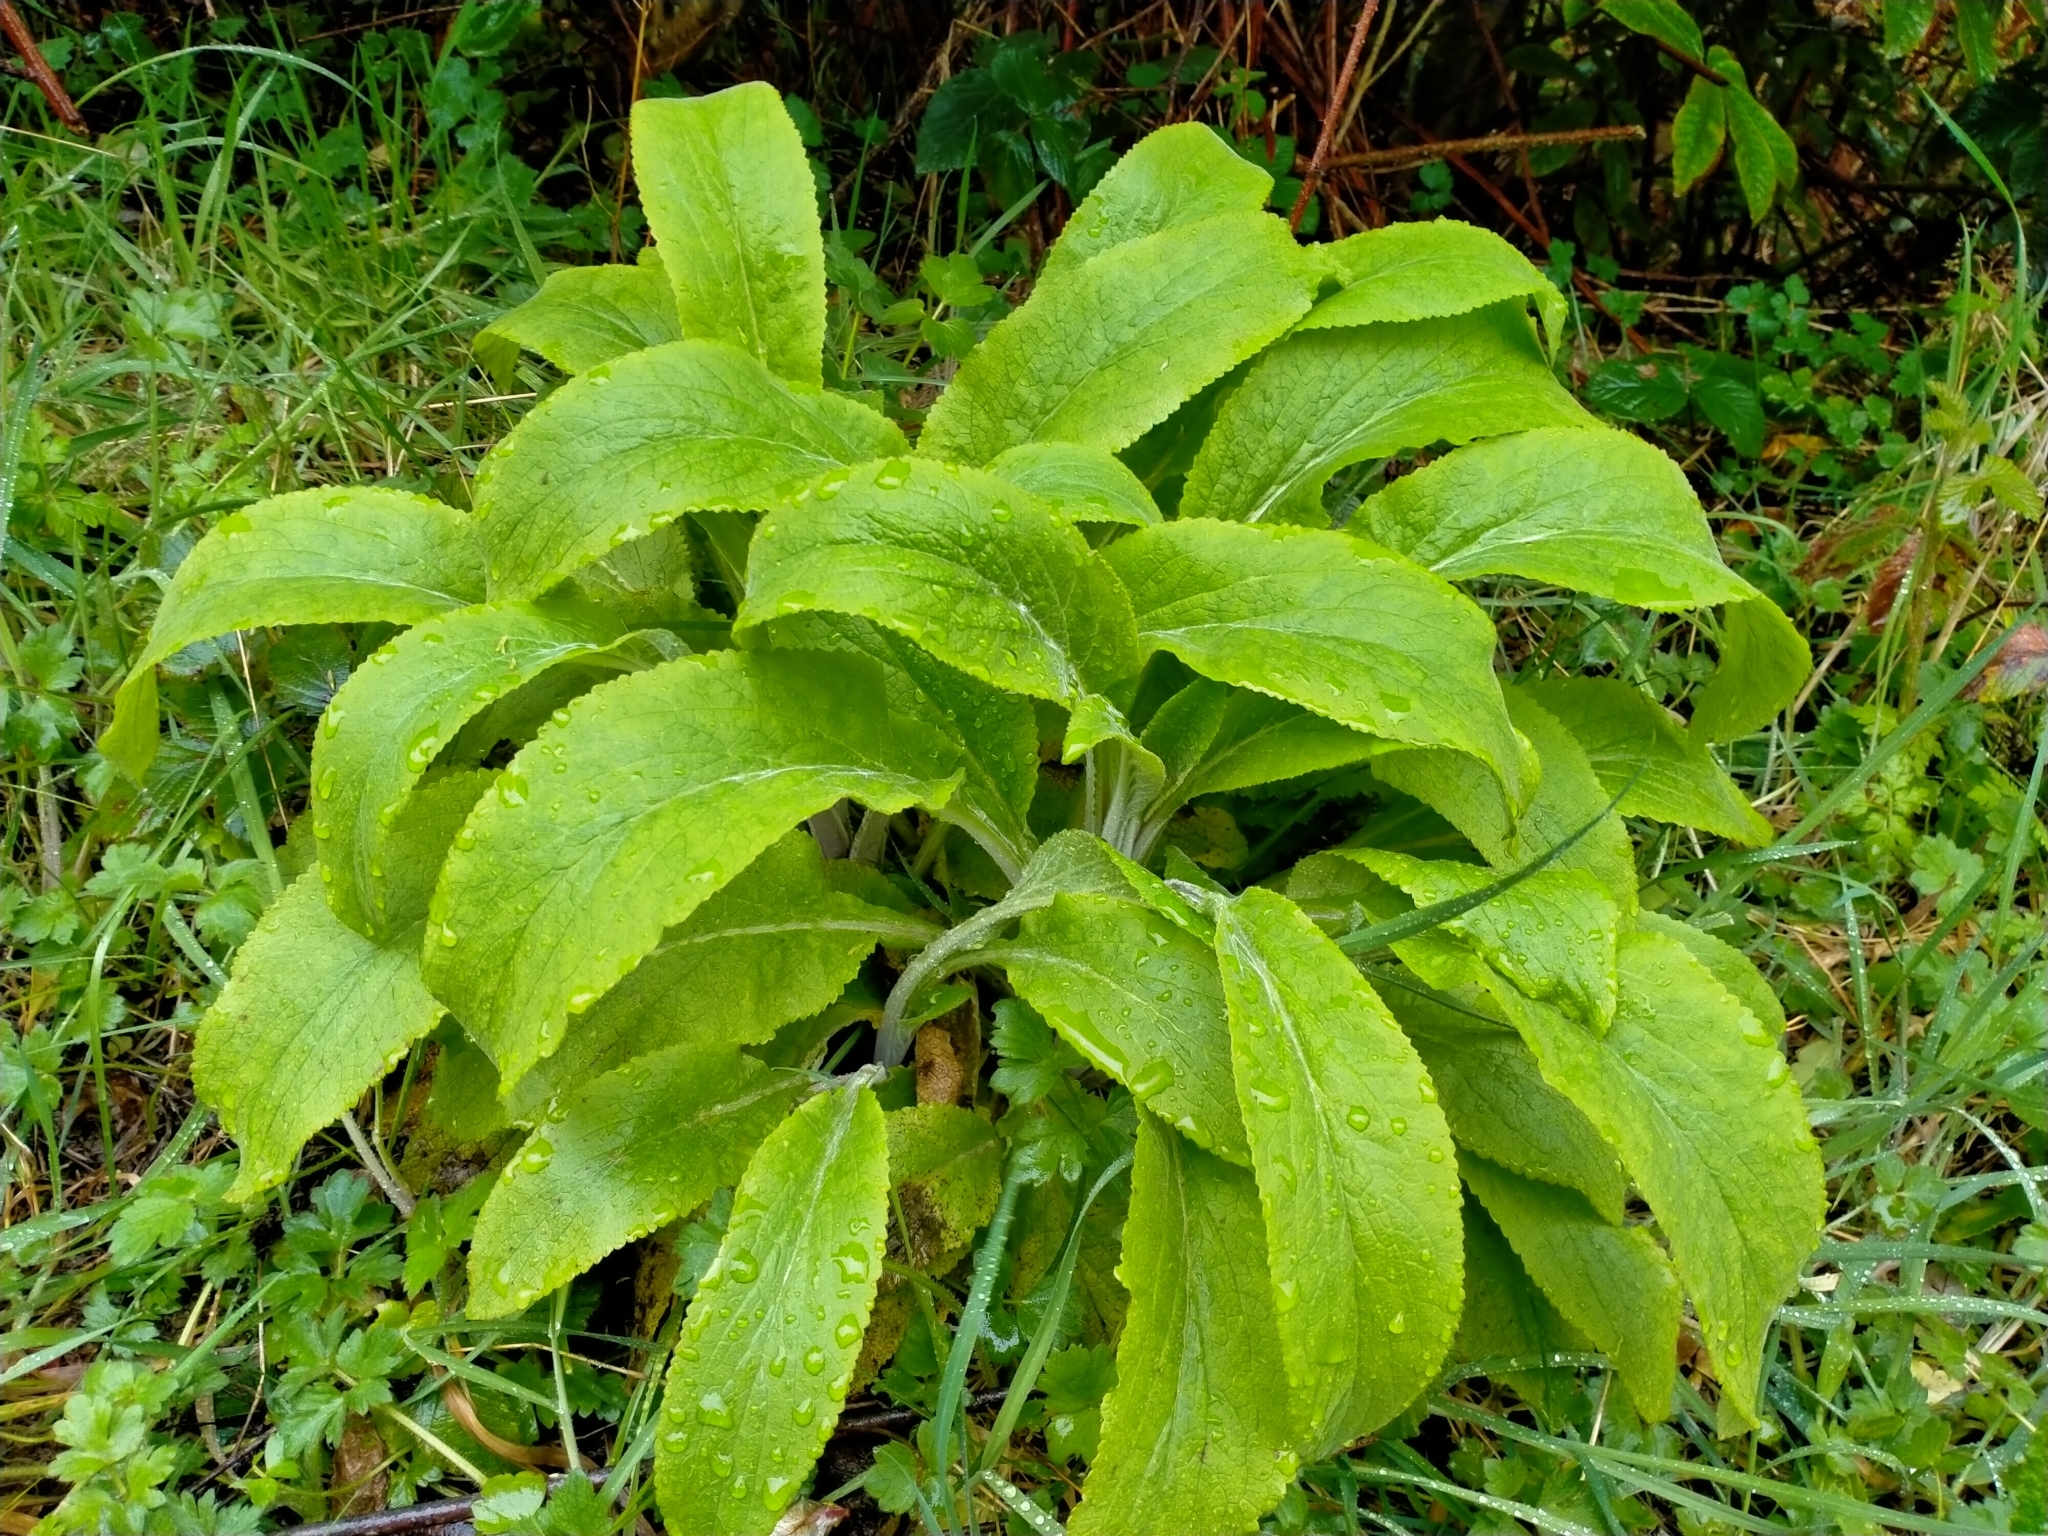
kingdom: Plantae
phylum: Tracheophyta
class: Magnoliopsida
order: Lamiales
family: Plantaginaceae
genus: Digitalis
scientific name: Digitalis purpurea
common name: Foxglove
